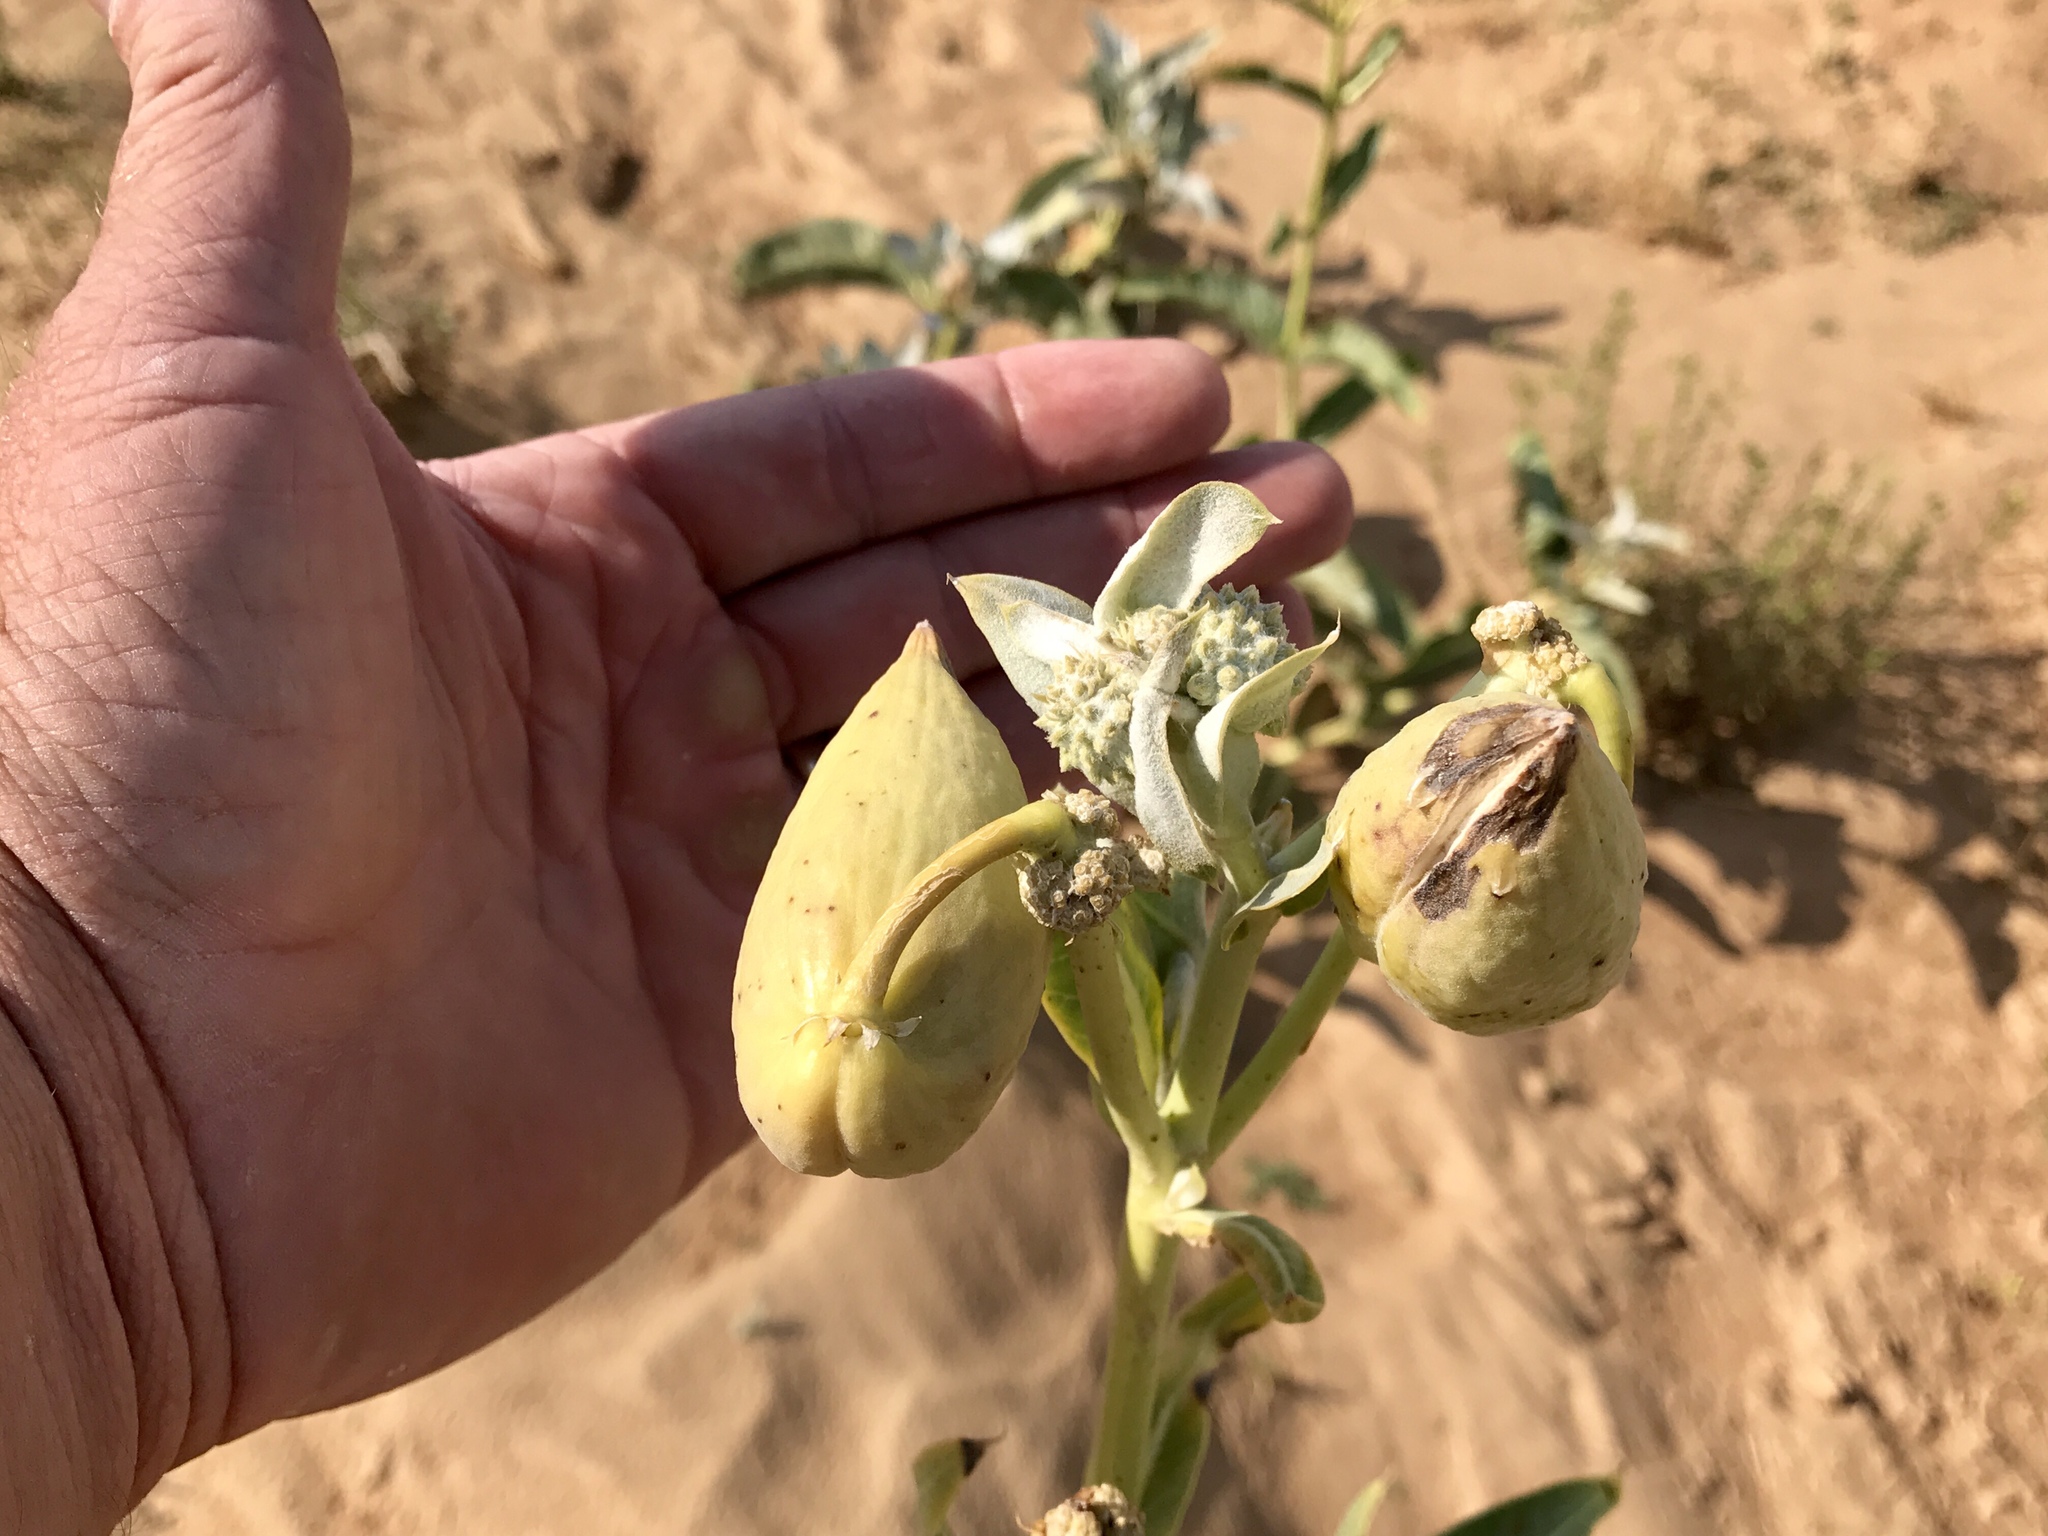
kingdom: Plantae
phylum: Tracheophyta
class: Magnoliopsida
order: Gentianales
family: Apocynaceae
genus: Asclepias
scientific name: Asclepias erosa
